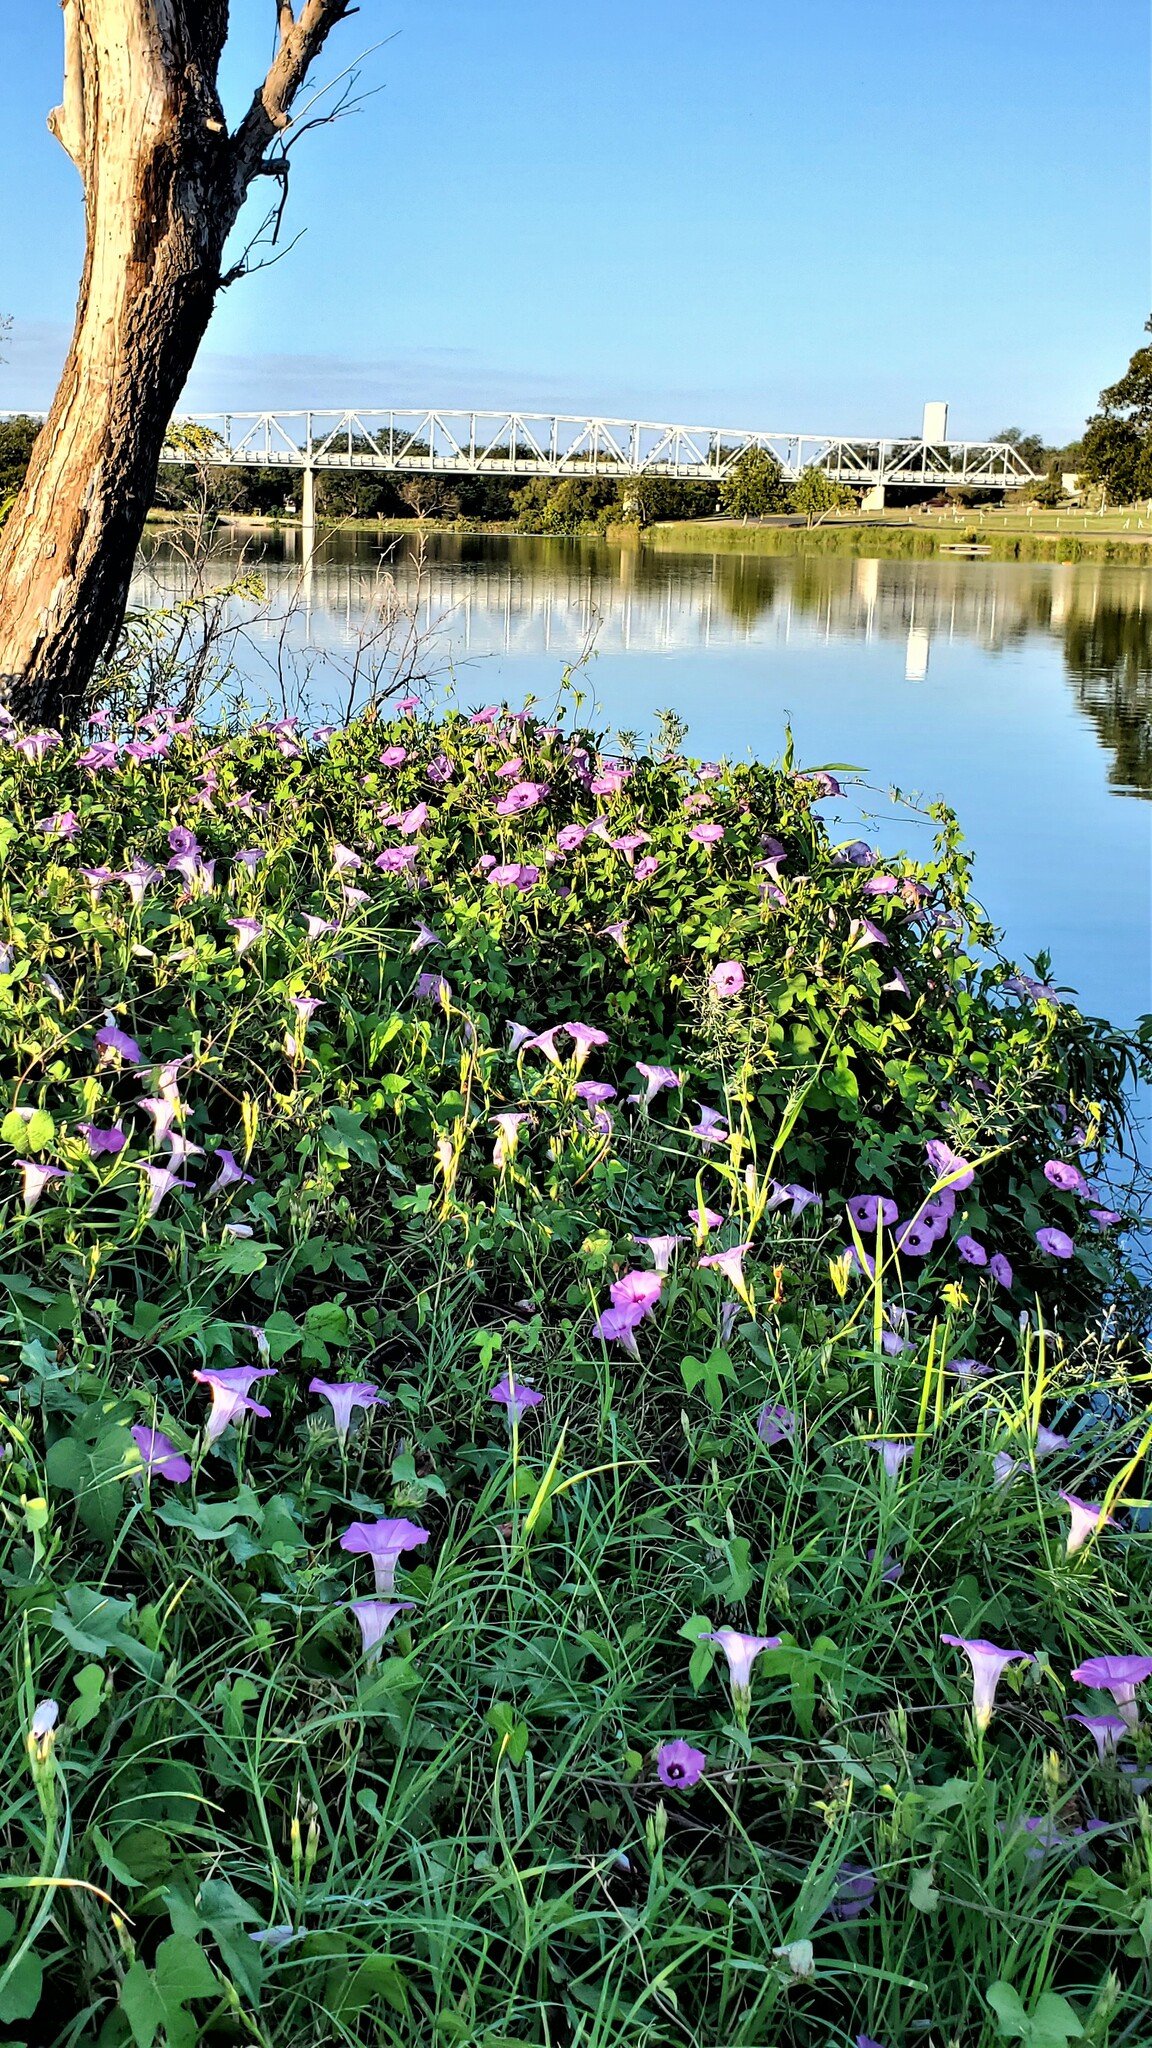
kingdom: Plantae
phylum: Tracheophyta
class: Magnoliopsida
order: Solanales
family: Convolvulaceae
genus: Ipomoea
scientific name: Ipomoea cordatotriloba
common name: Cotton morning glory
